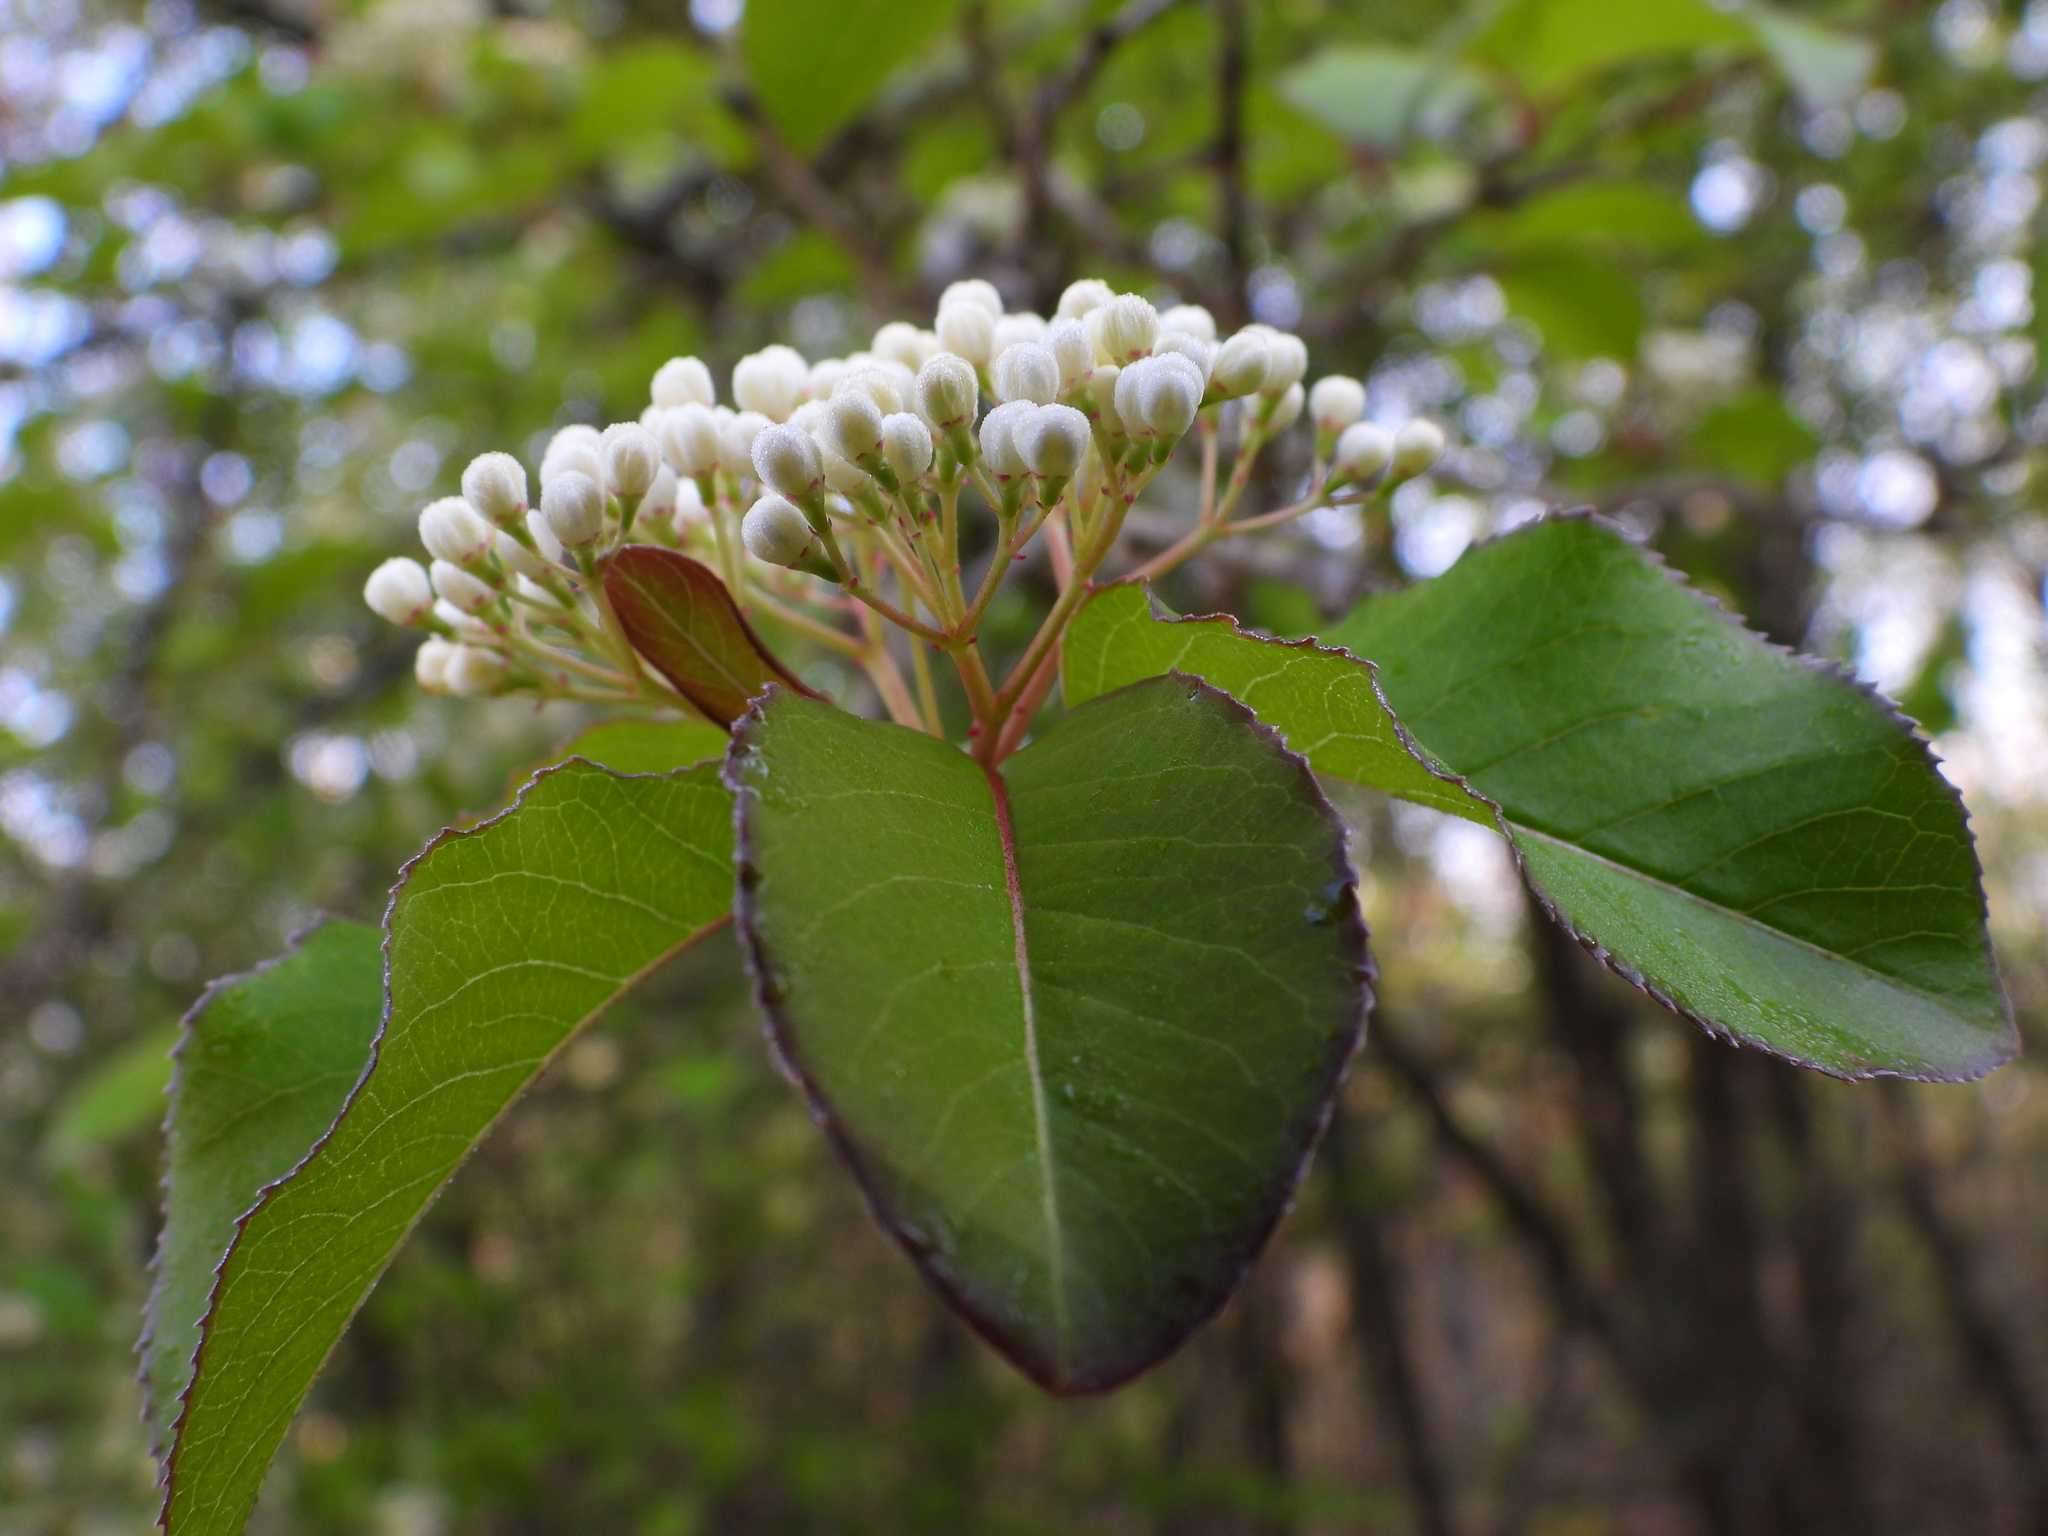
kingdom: Plantae
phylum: Tracheophyta
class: Magnoliopsida
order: Dipsacales
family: Viburnaceae
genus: Viburnum
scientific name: Viburnum prunifolium
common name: Black haw
